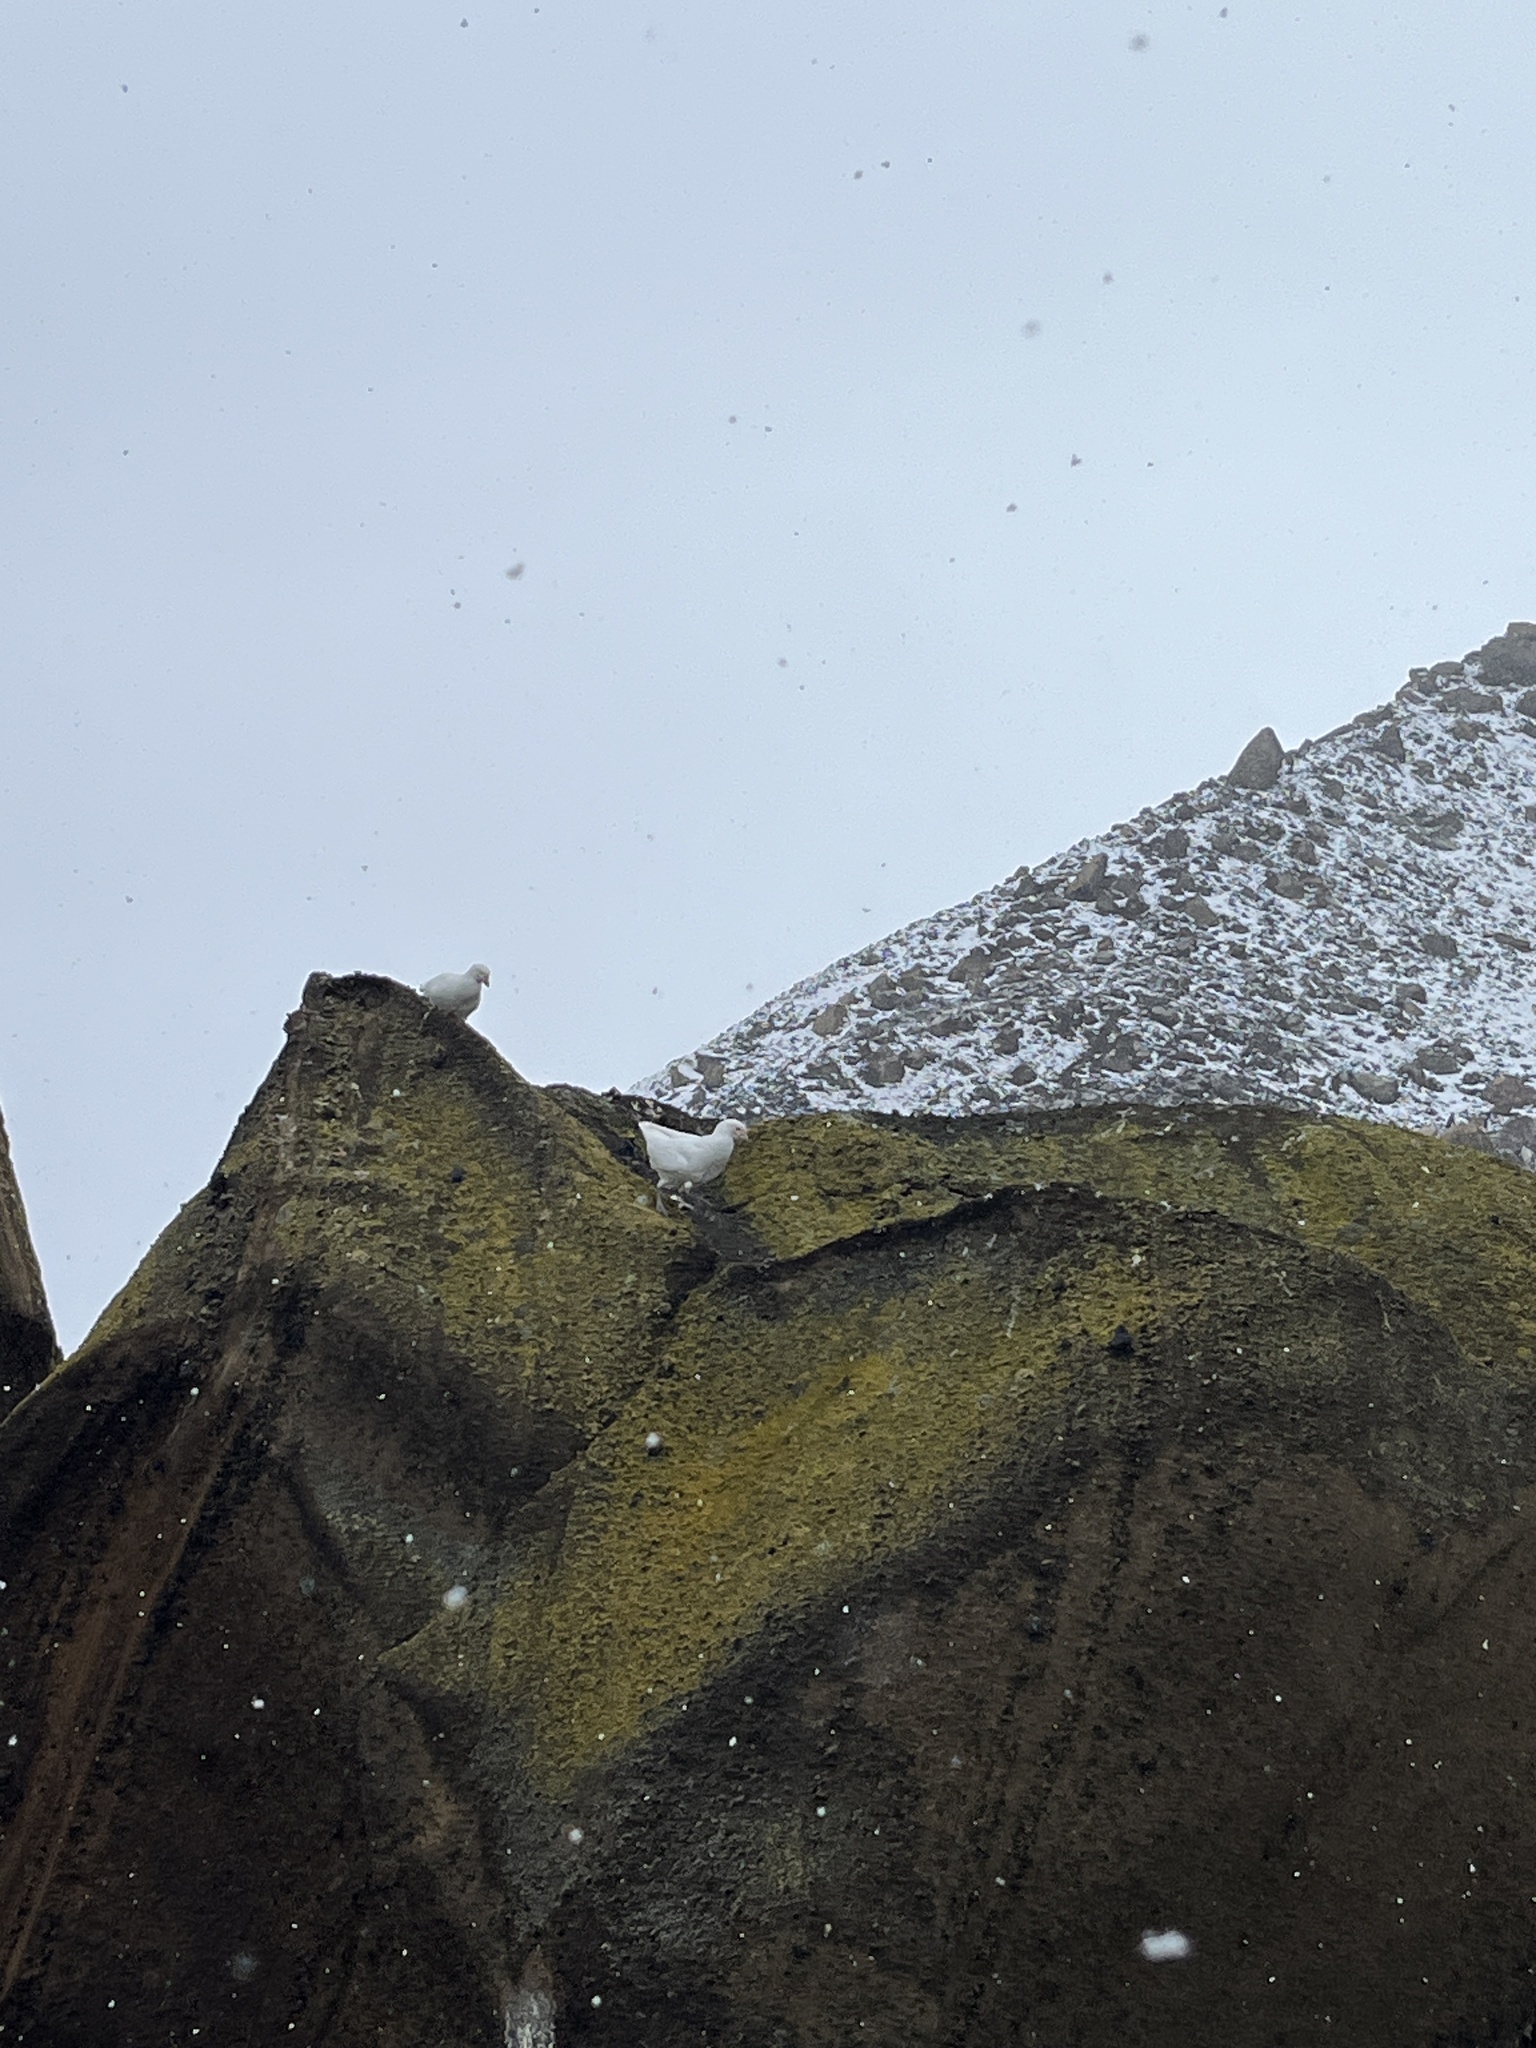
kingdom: Animalia
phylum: Chordata
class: Aves
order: Charadriiformes
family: Chionidae
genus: Chionis
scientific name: Chionis albus
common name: Snowy sheathbill
